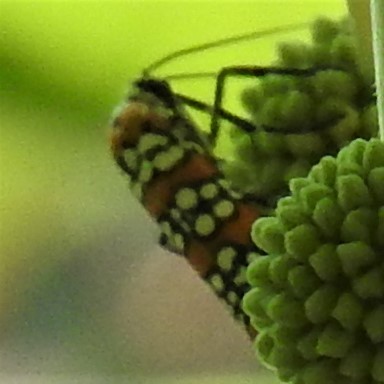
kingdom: Animalia
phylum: Arthropoda
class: Insecta
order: Lepidoptera
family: Attevidae
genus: Atteva
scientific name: Atteva punctella
